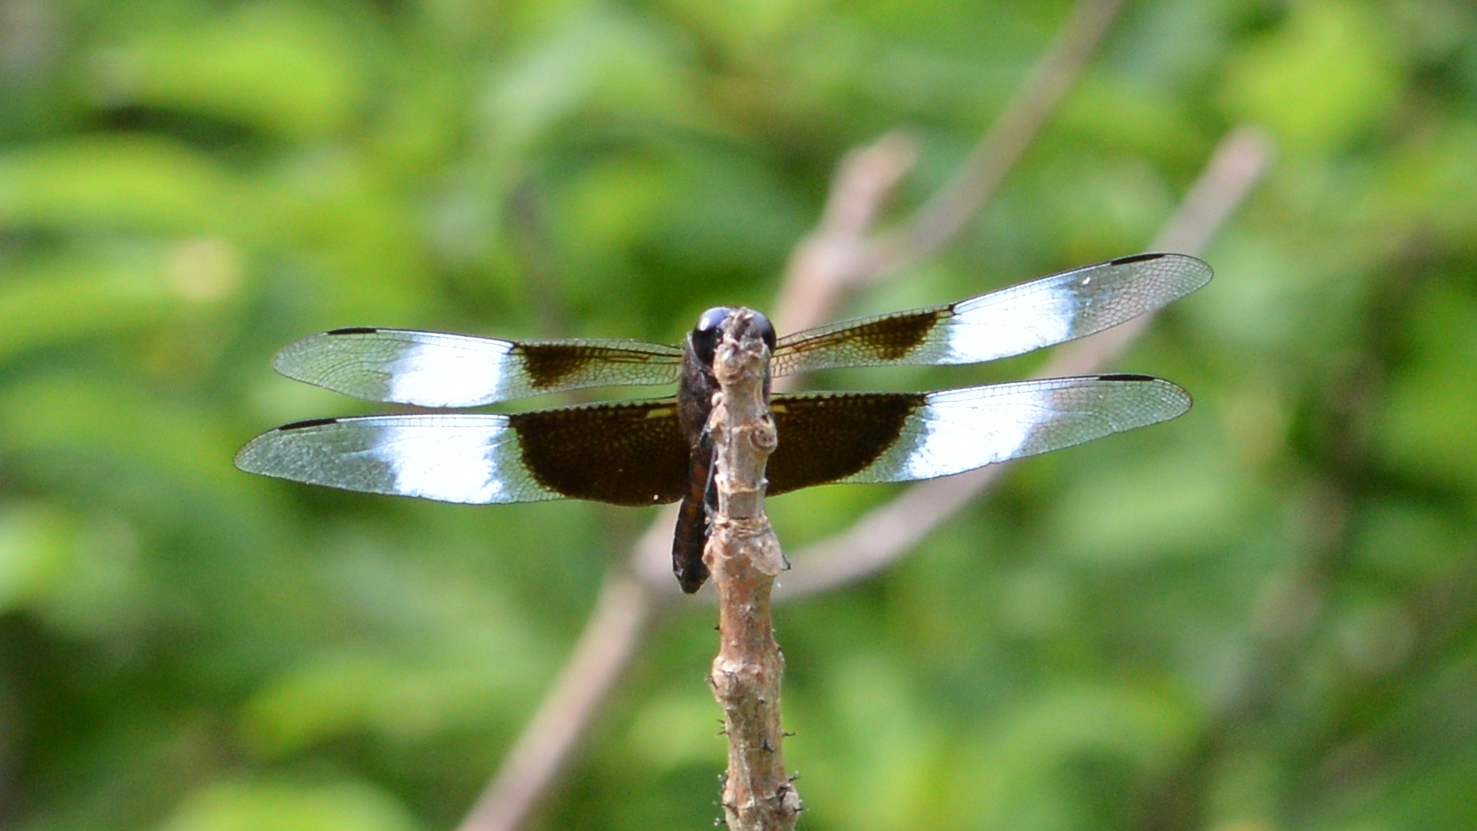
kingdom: Animalia
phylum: Arthropoda
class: Insecta
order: Odonata
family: Libellulidae
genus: Libellula
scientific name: Libellula luctuosa
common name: Widow skimmer
